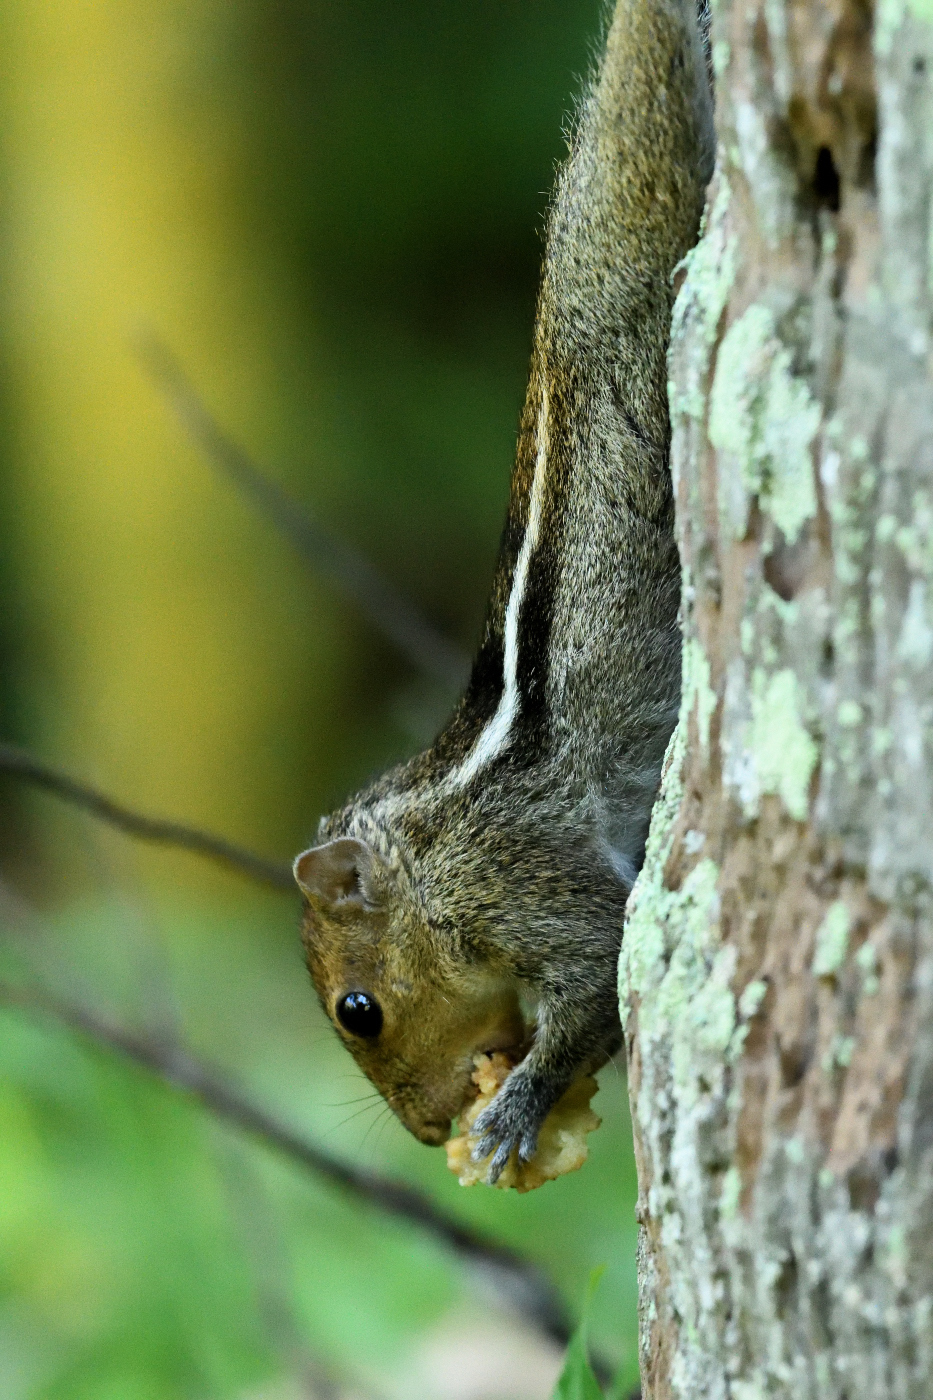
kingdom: Animalia
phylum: Chordata
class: Mammalia
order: Rodentia
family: Sciuridae
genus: Funambulus
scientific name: Funambulus tristriatus
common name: Jungle palm squirrel
